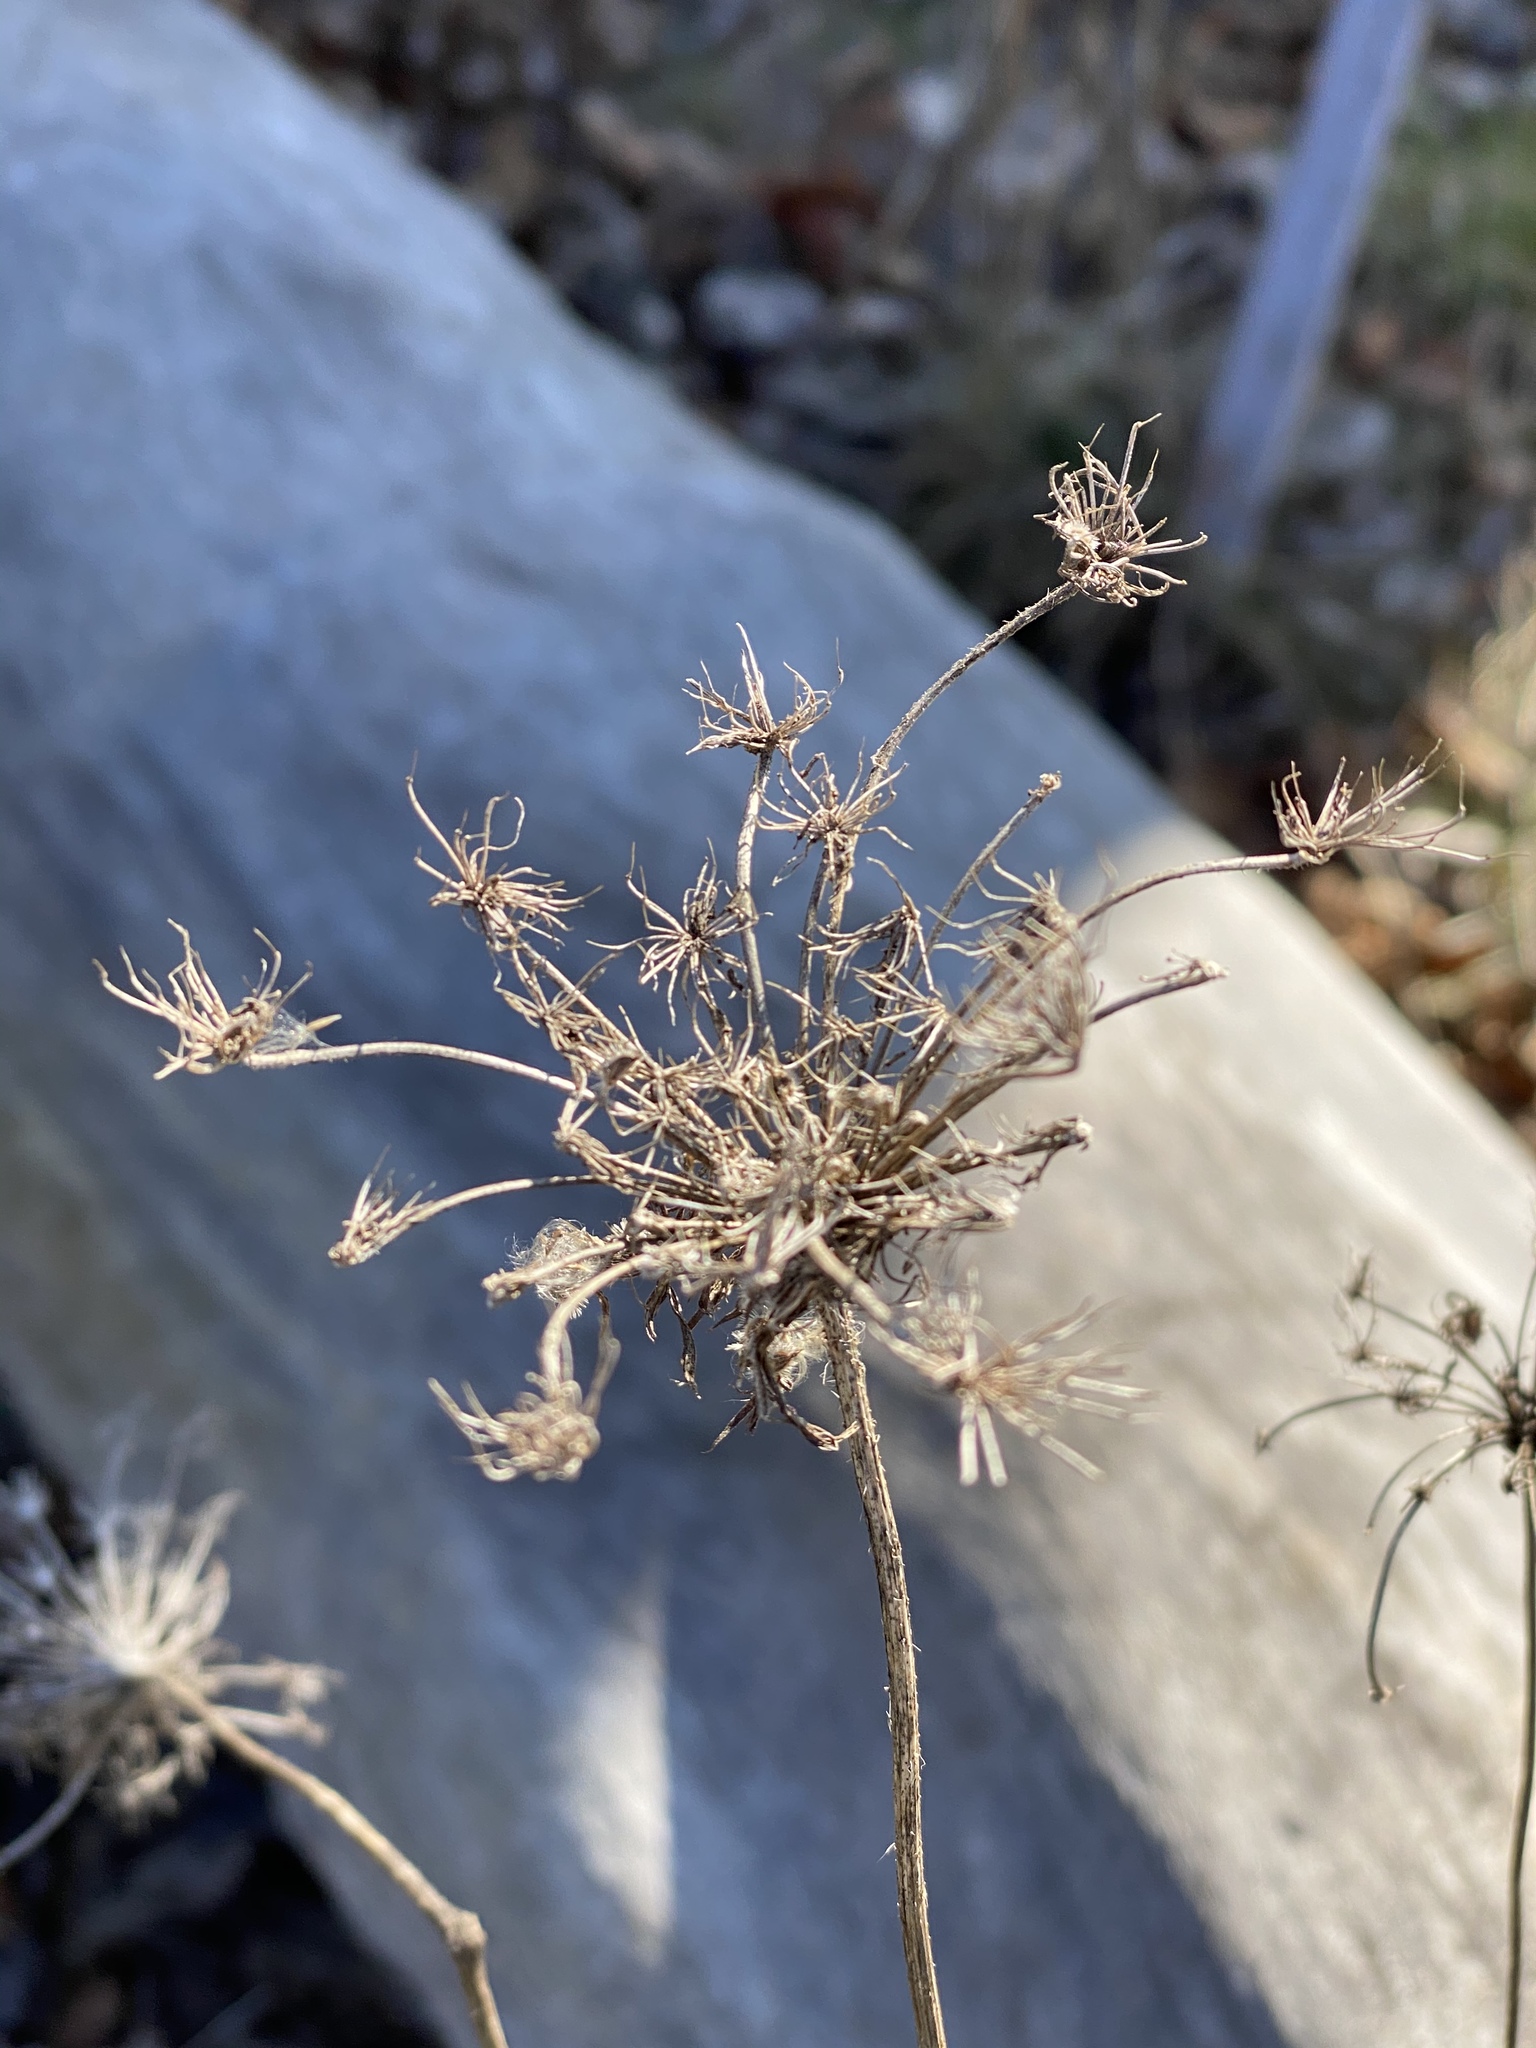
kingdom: Plantae
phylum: Tracheophyta
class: Magnoliopsida
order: Apiales
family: Apiaceae
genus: Daucus
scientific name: Daucus carota
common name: Wild carrot
